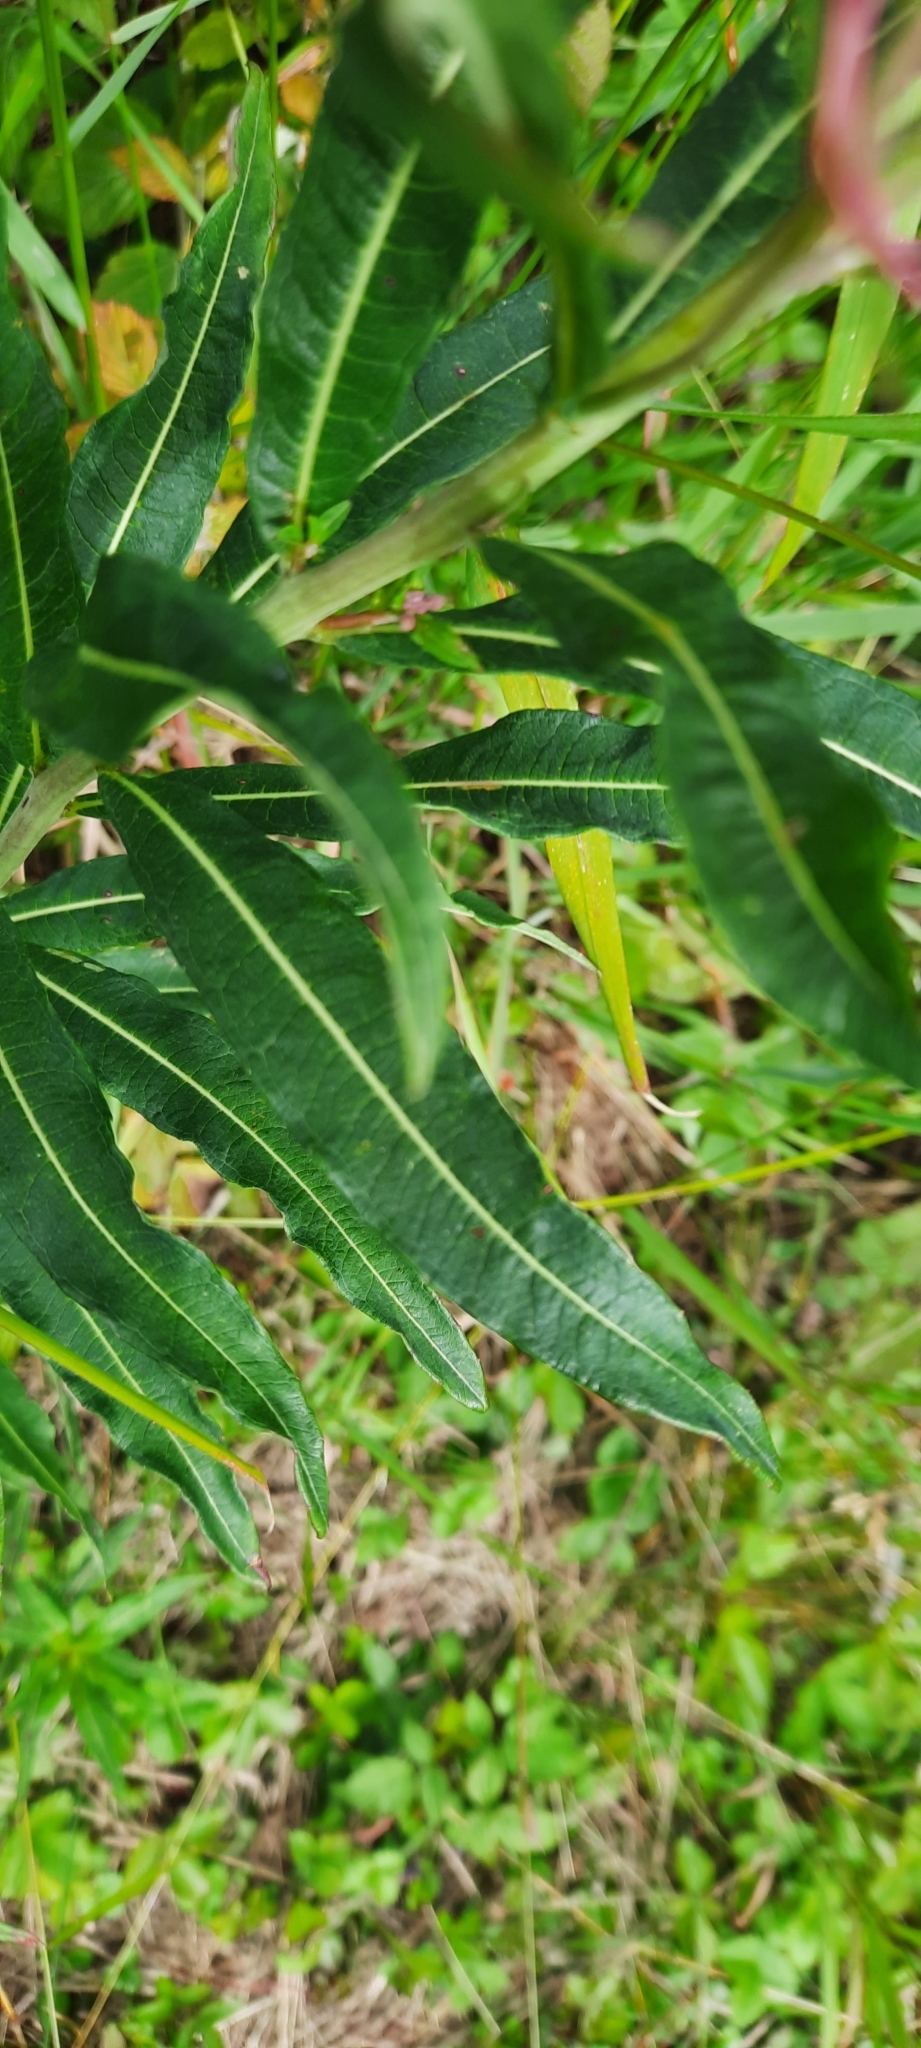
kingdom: Plantae
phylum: Tracheophyta
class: Magnoliopsida
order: Myrtales
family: Onagraceae
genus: Chamaenerion
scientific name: Chamaenerion angustifolium
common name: Fireweed
